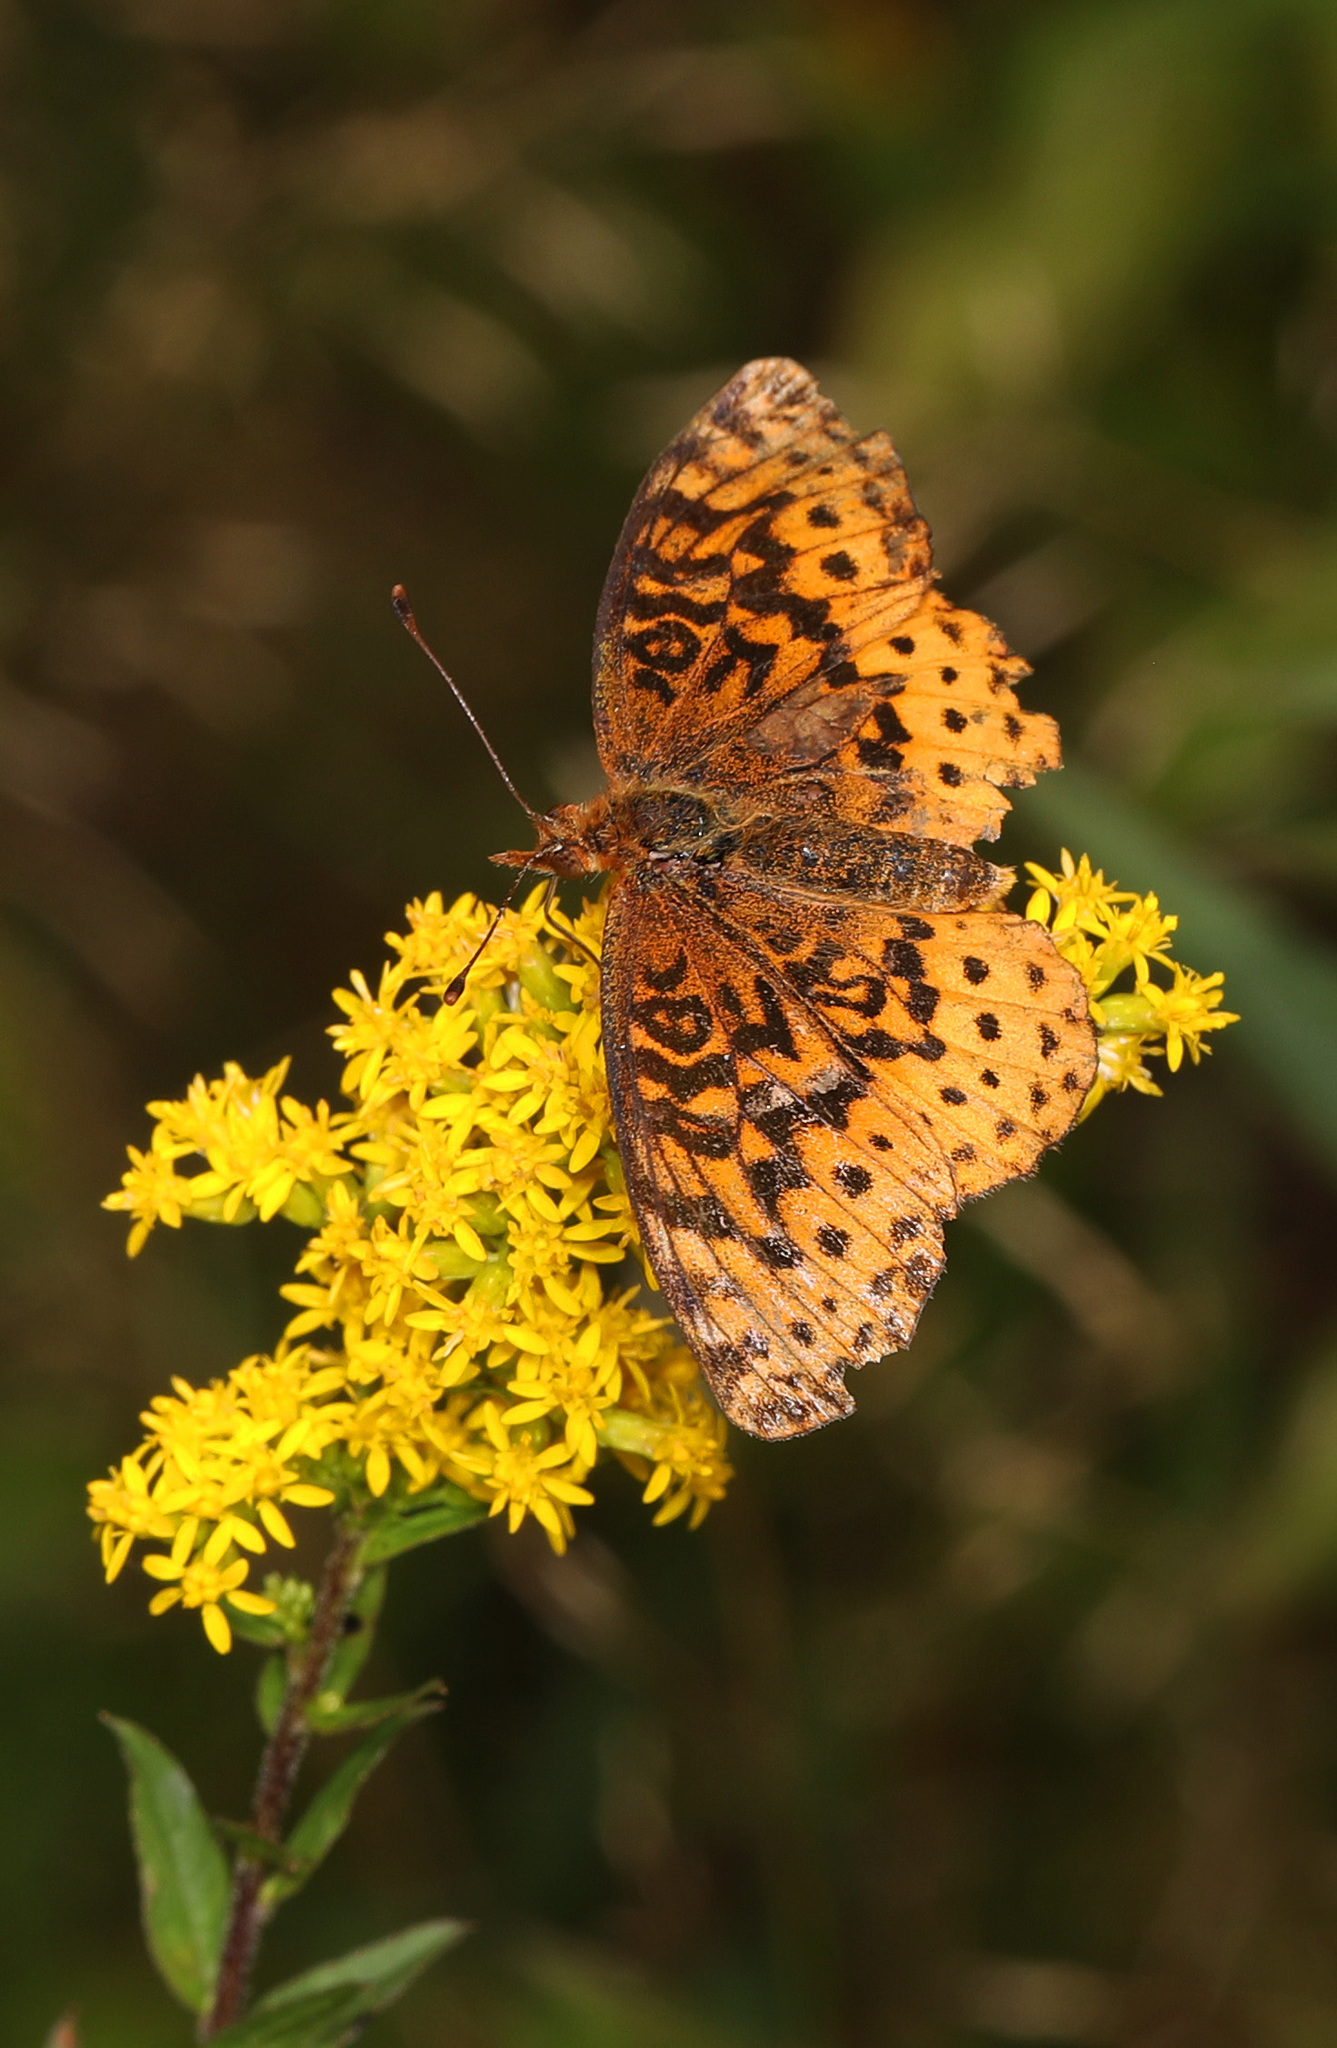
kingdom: Animalia
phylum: Arthropoda
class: Insecta
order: Lepidoptera
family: Nymphalidae
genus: Clossiana
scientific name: Clossiana toddi
